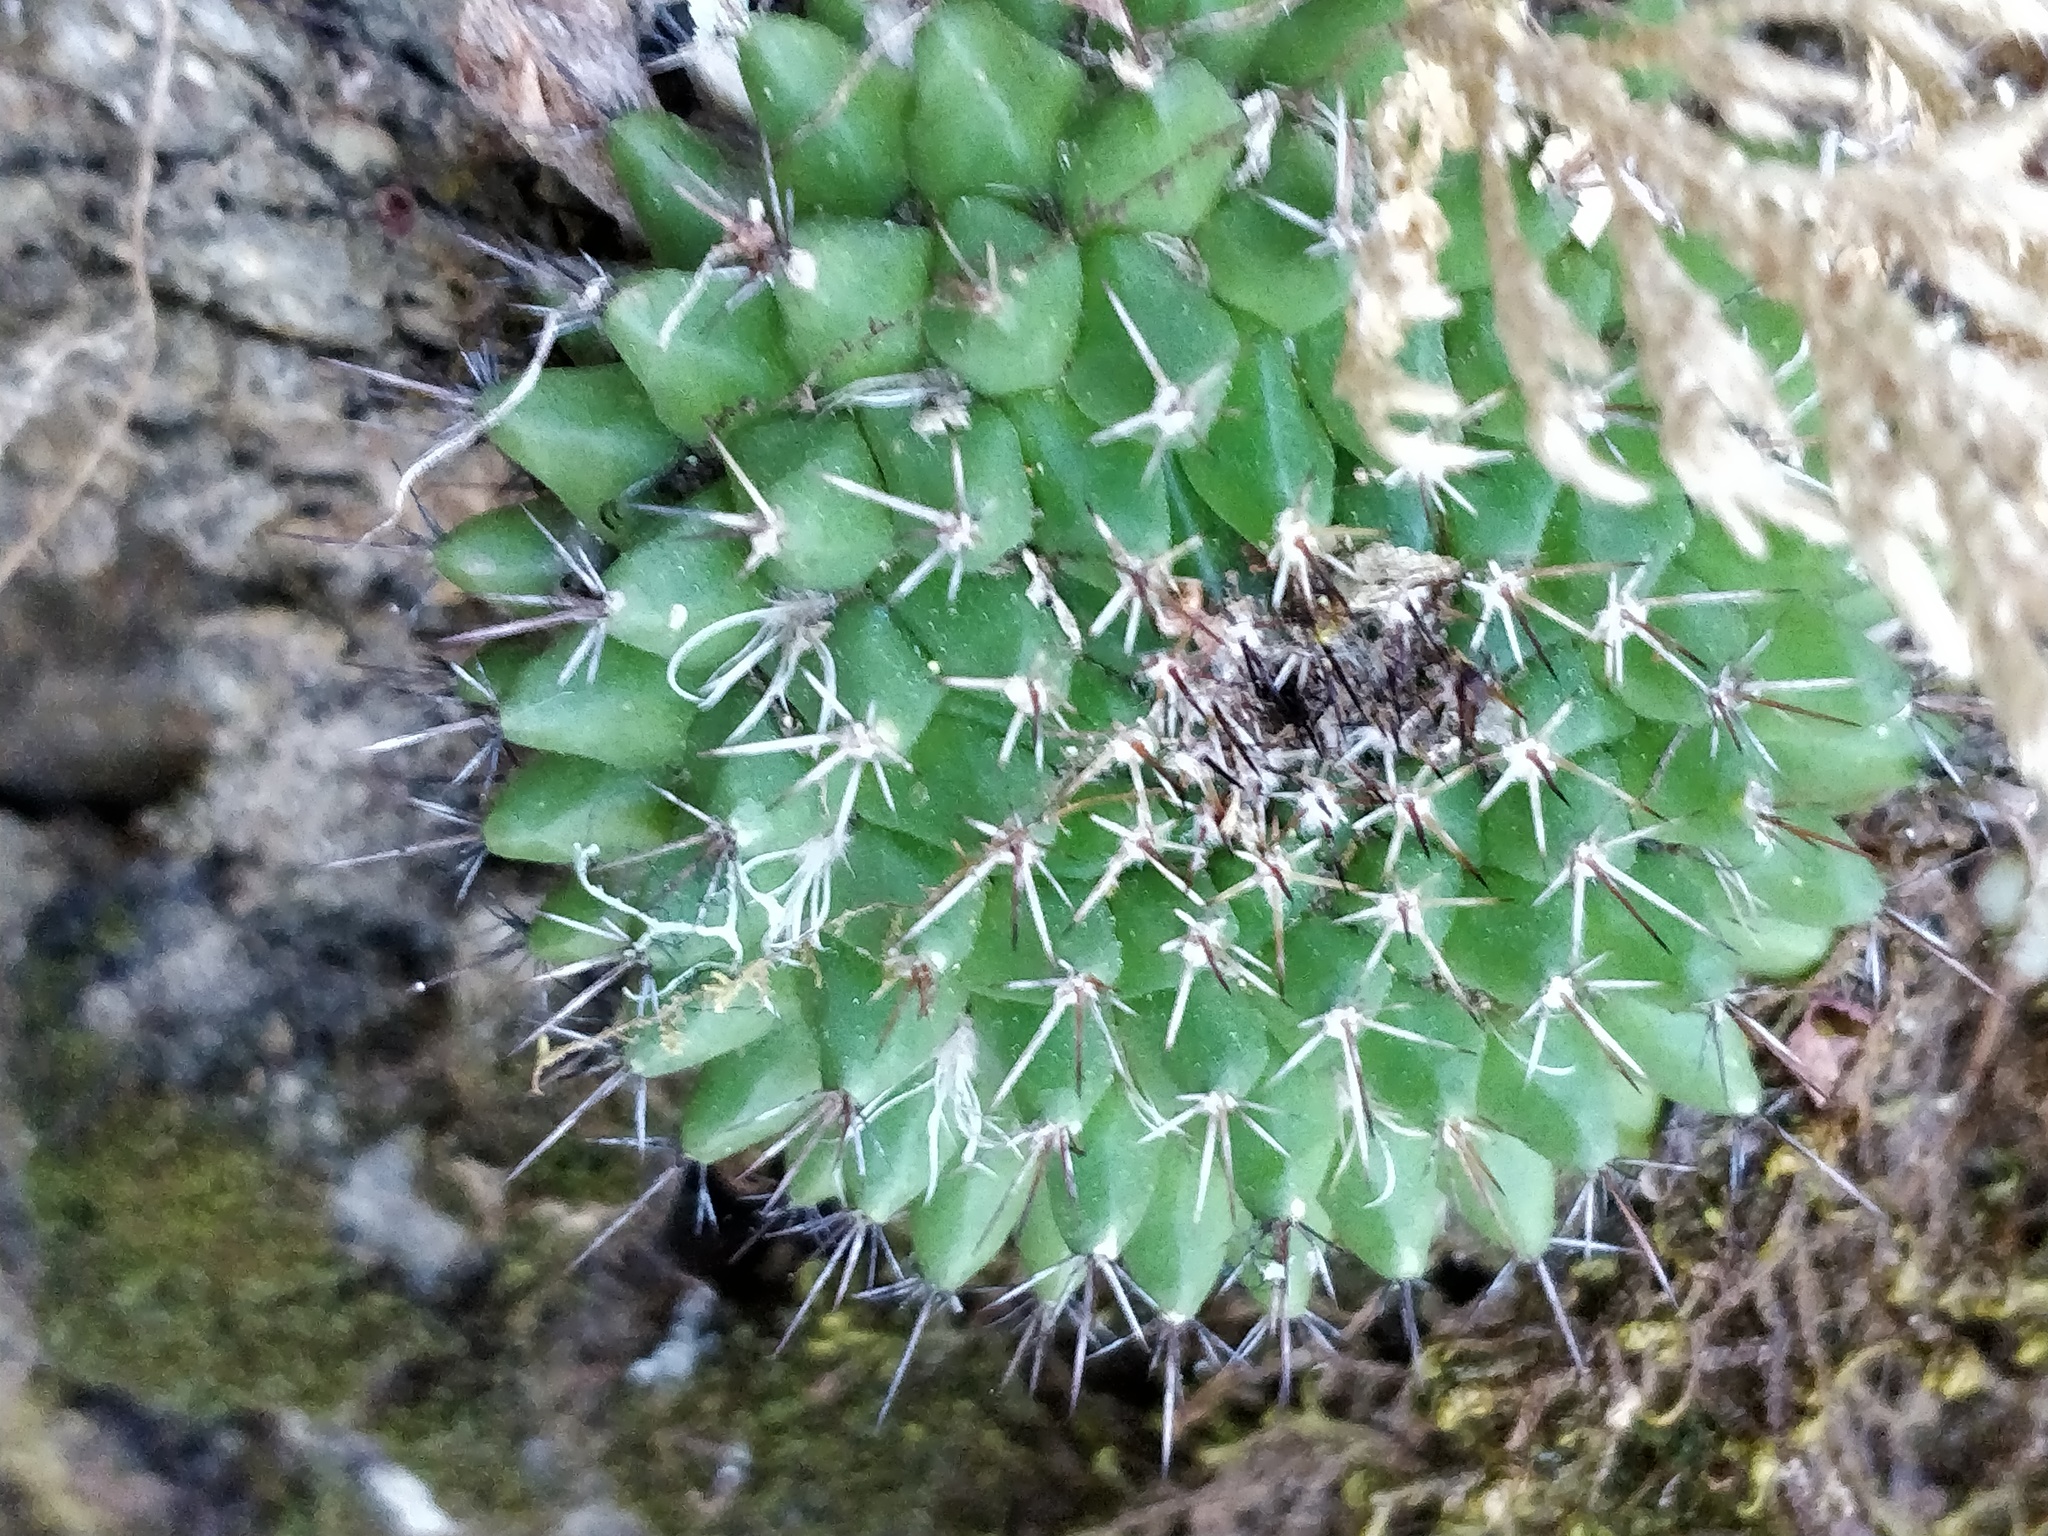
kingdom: Plantae
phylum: Tracheophyta
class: Magnoliopsida
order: Caryophyllales
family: Cactaceae
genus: Mammillaria
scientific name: Mammillaria karwinskiana
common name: Royal cross
